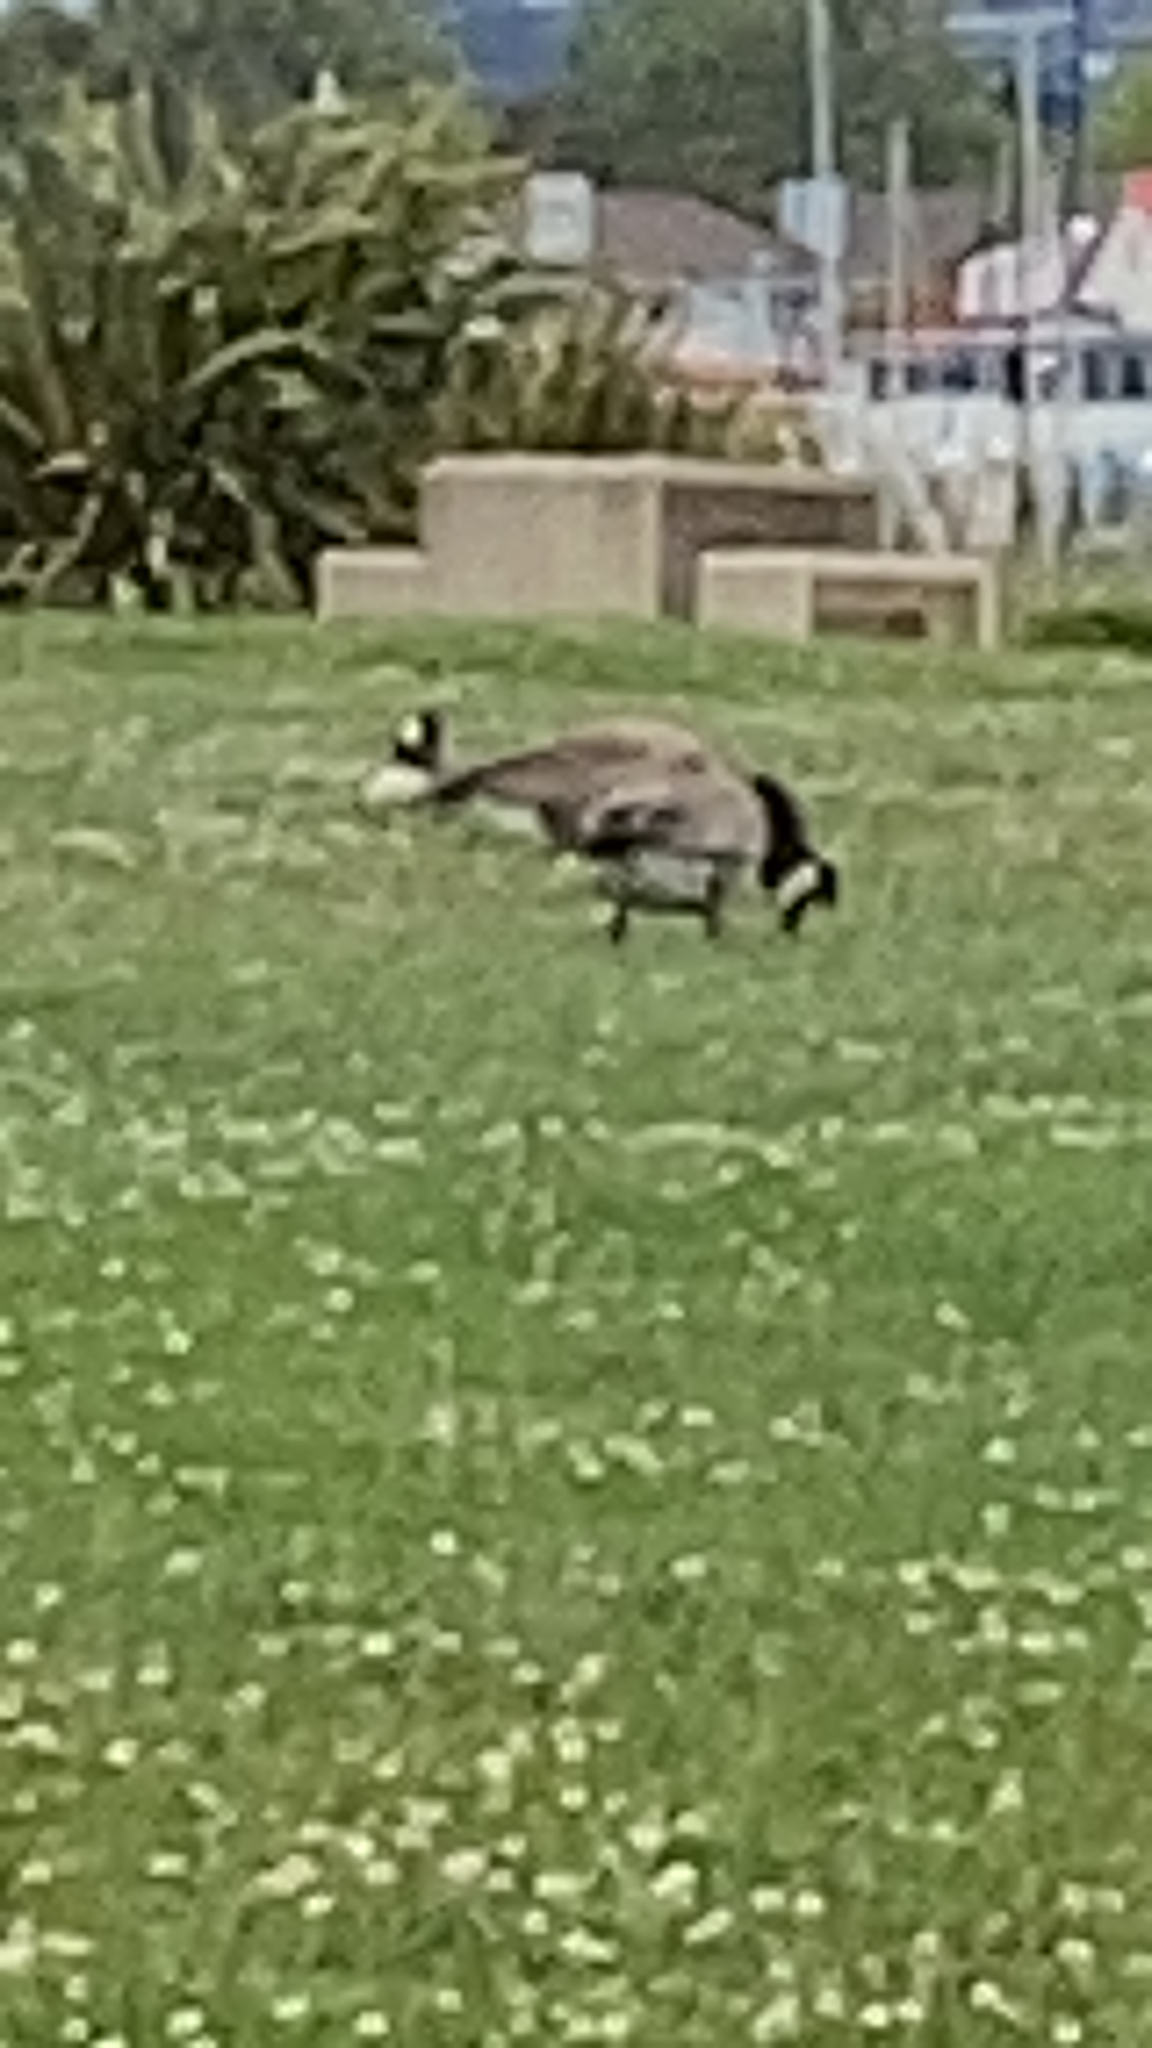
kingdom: Animalia
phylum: Chordata
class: Aves
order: Anseriformes
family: Anatidae
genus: Branta
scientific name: Branta canadensis
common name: Canada goose
